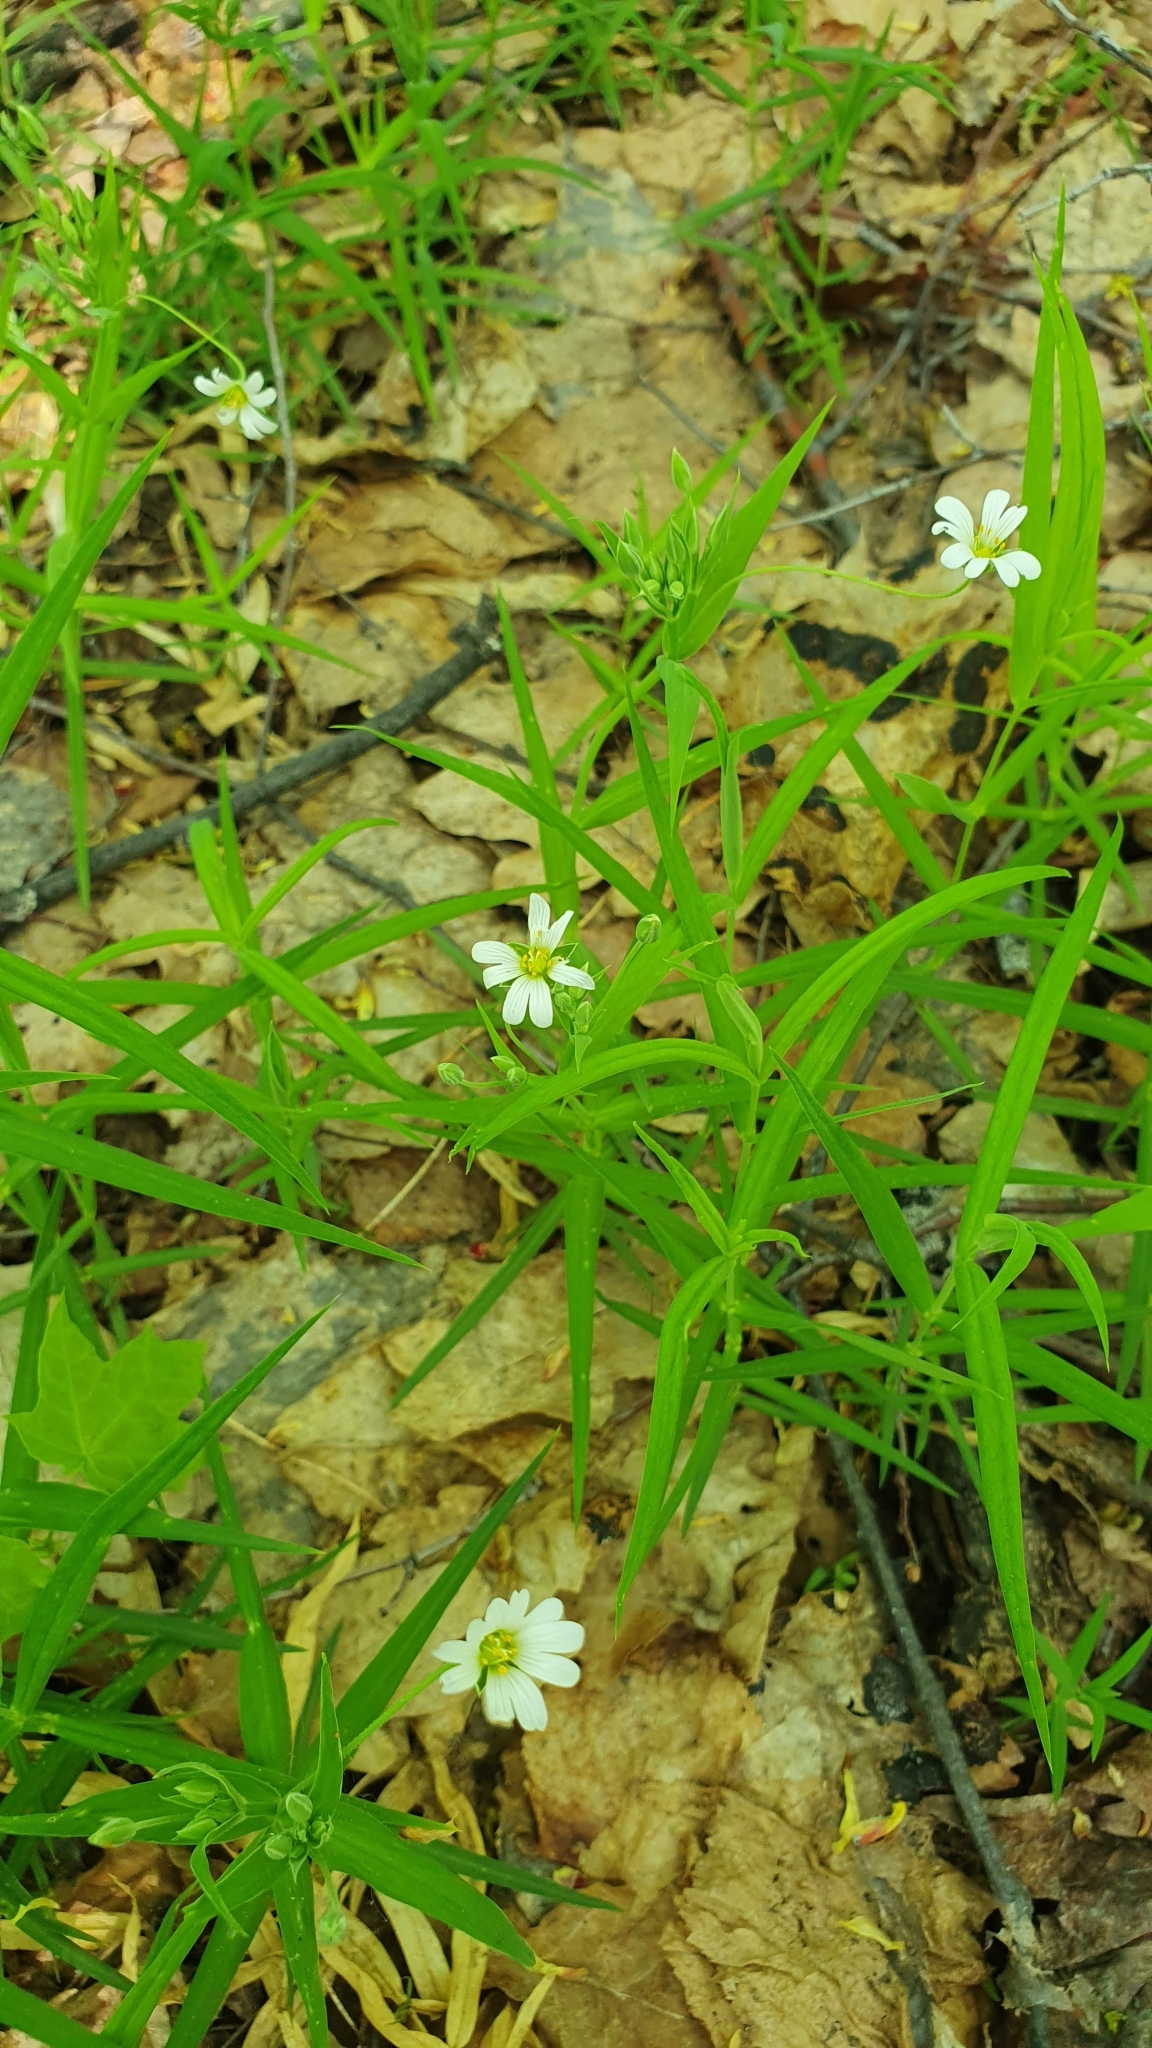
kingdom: Plantae
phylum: Tracheophyta
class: Magnoliopsida
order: Caryophyllales
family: Caryophyllaceae
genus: Rabelera
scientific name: Rabelera holostea
